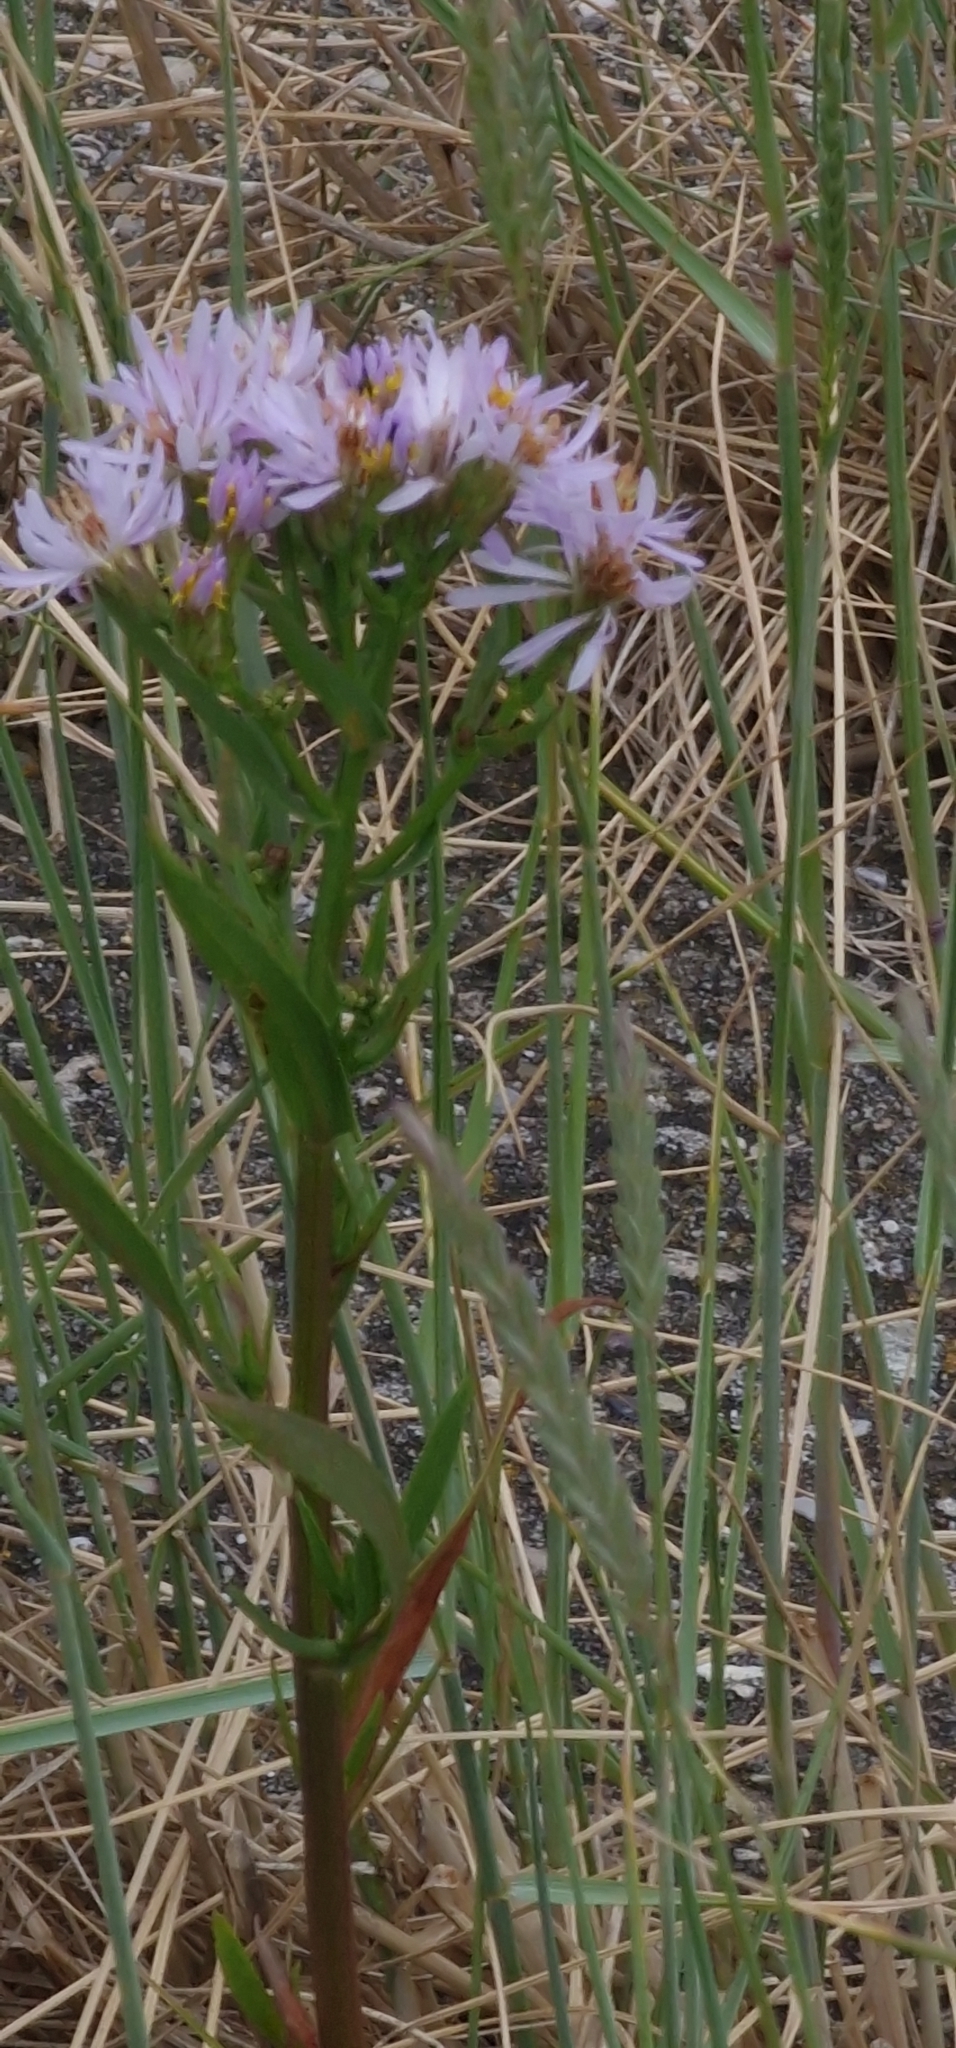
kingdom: Plantae
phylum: Tracheophyta
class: Magnoliopsida
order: Asterales
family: Asteraceae
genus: Tripolium
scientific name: Tripolium pannonicum
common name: Sea aster
